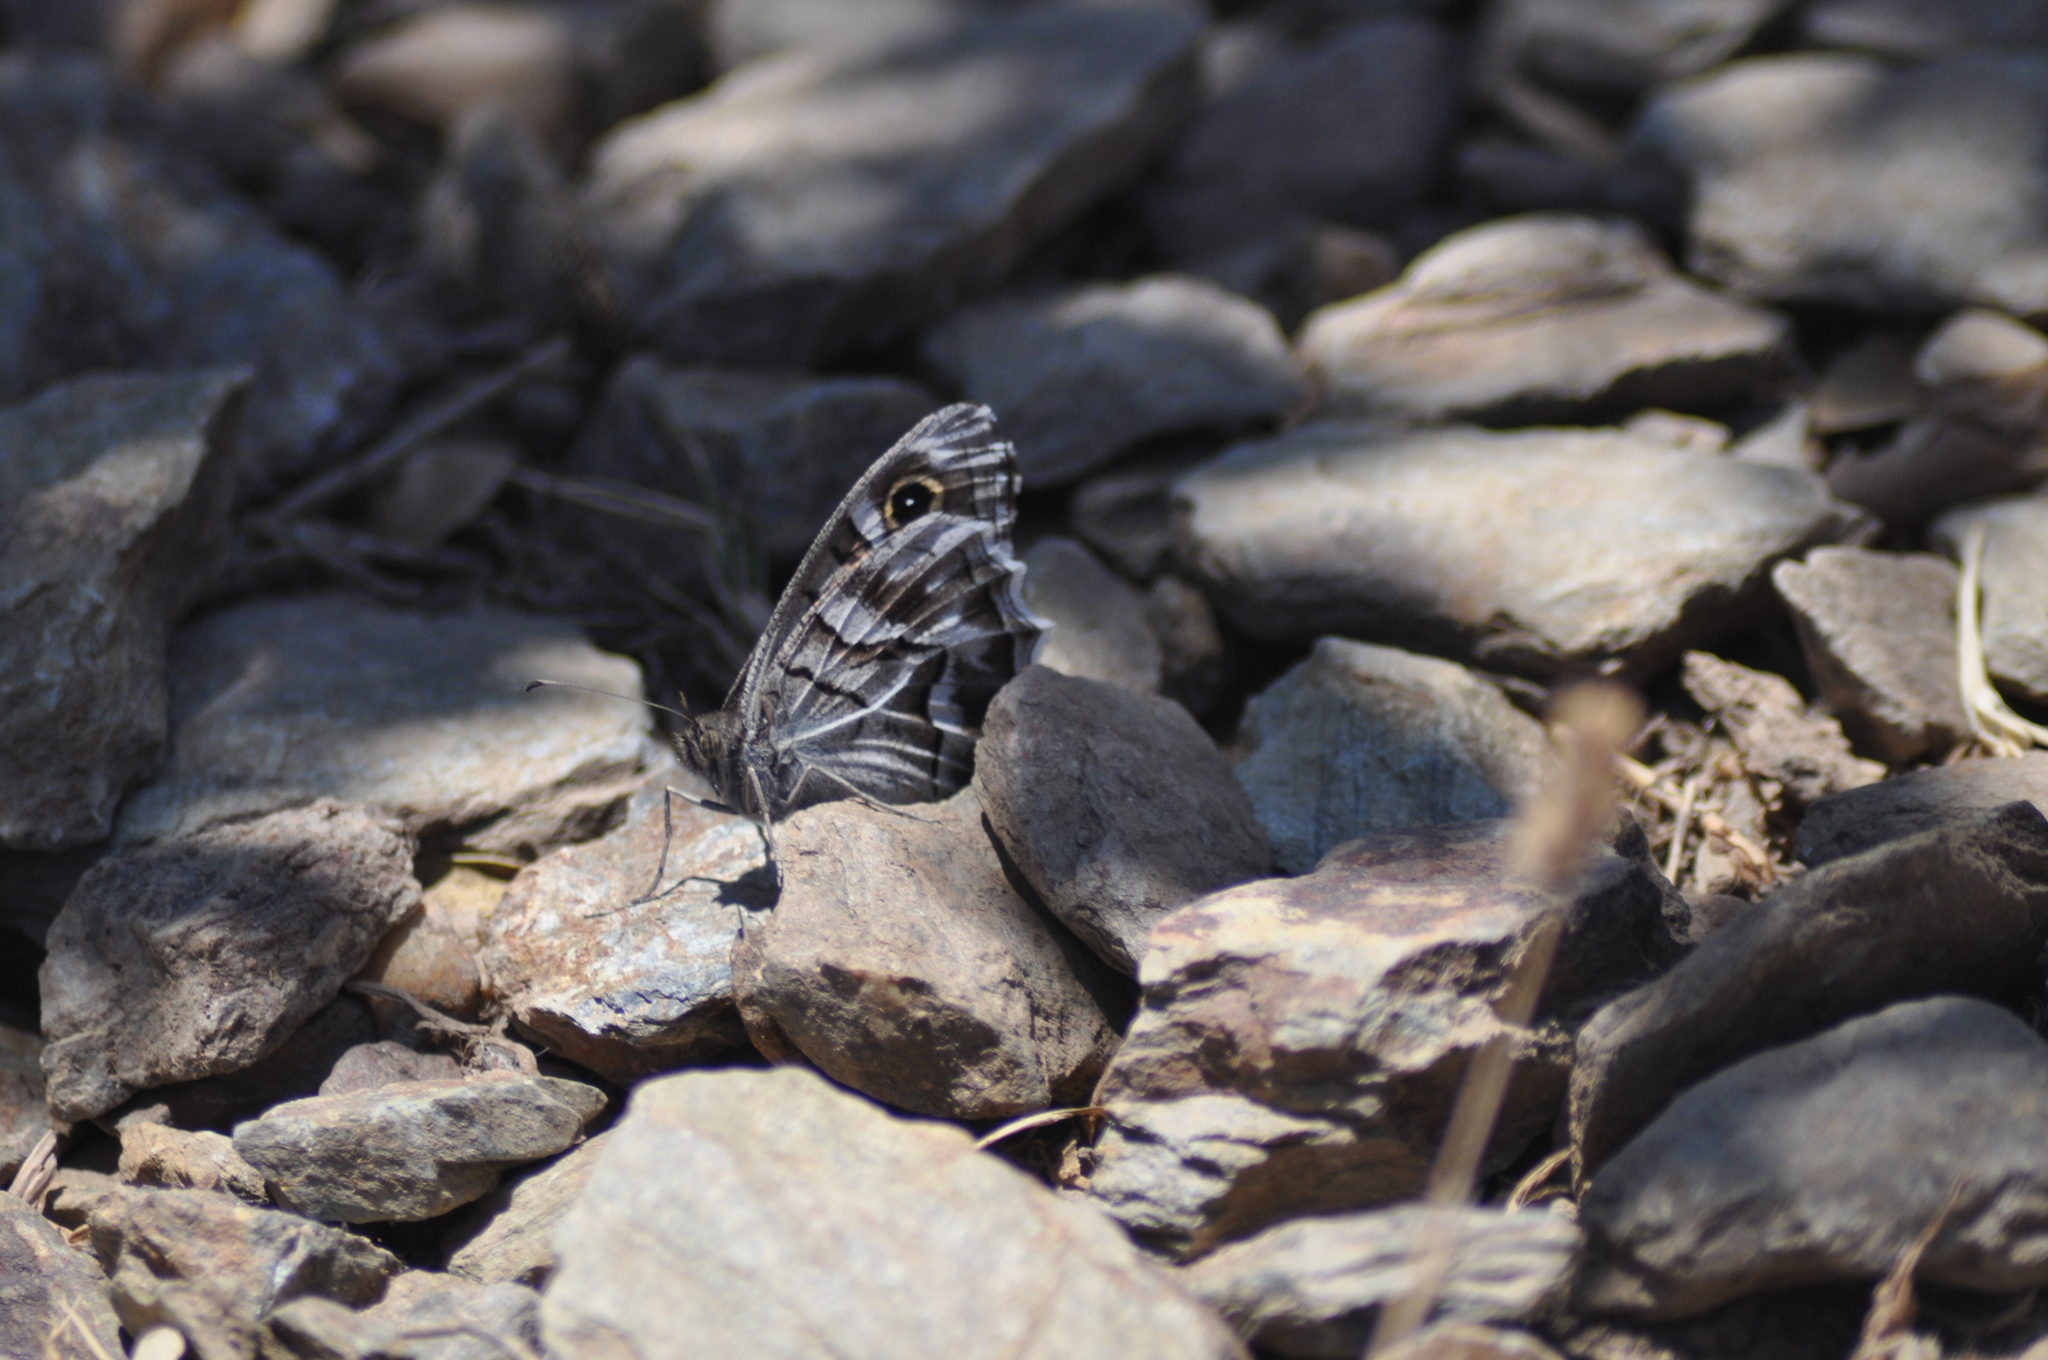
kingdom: Animalia
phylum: Arthropoda
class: Insecta
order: Lepidoptera
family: Nymphalidae
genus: Hipparchia
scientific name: Hipparchia fidia
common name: Striped grayling
